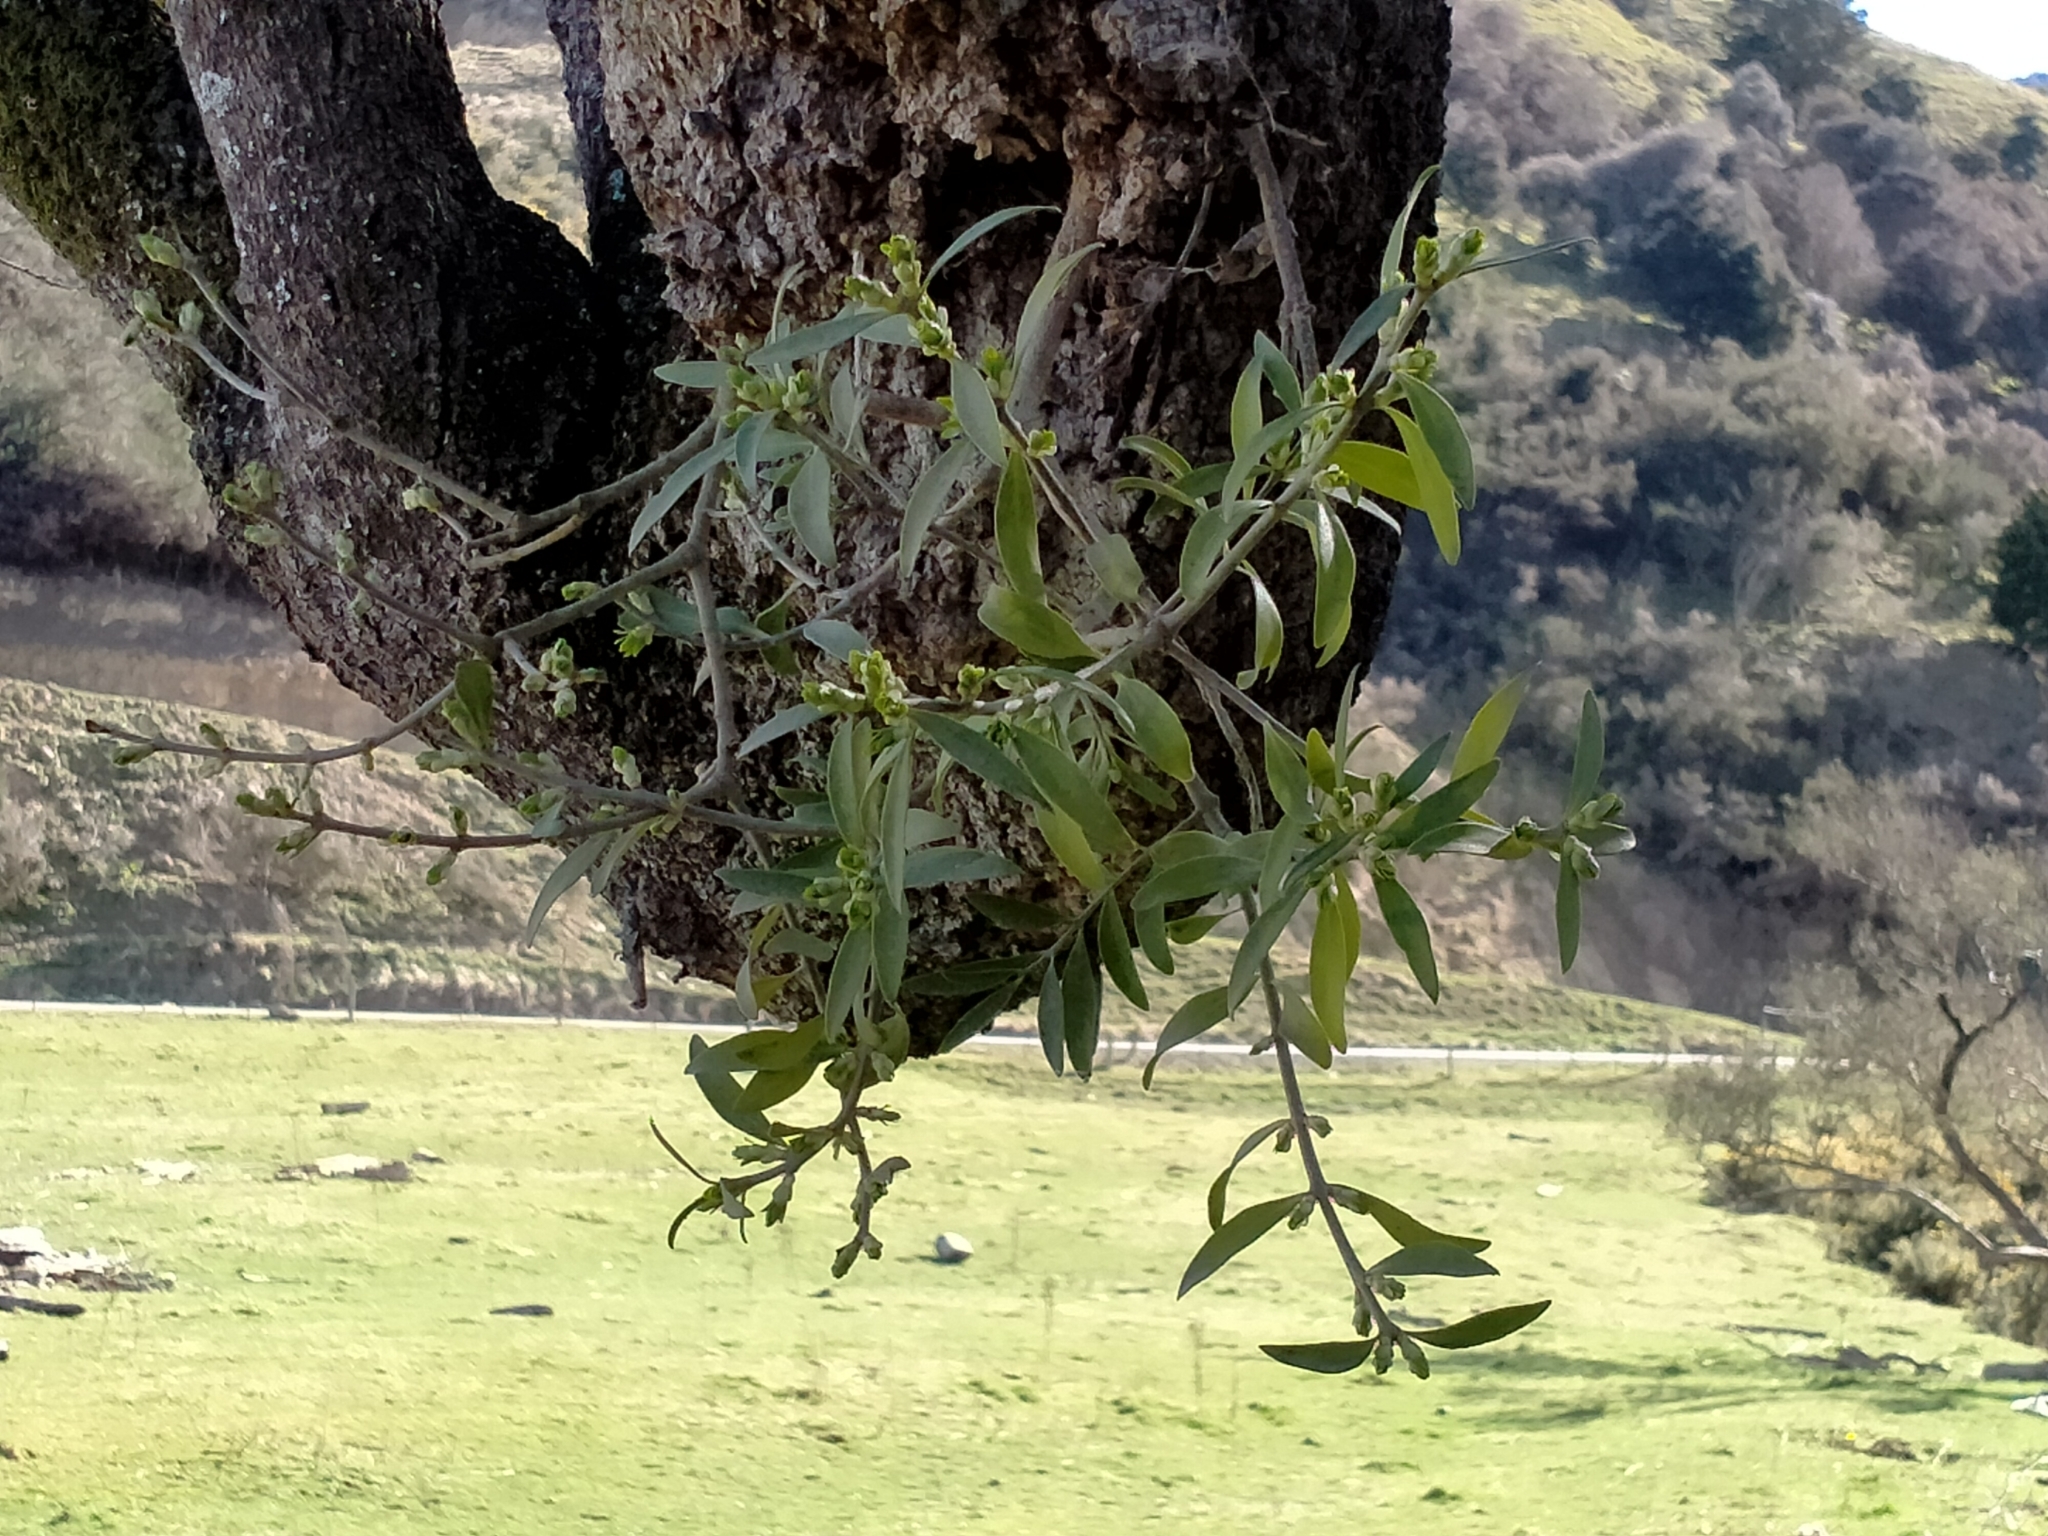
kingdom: Plantae
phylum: Tracheophyta
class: Magnoliopsida
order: Santalales
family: Loranthaceae
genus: Tupeia
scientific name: Tupeia antarctica
